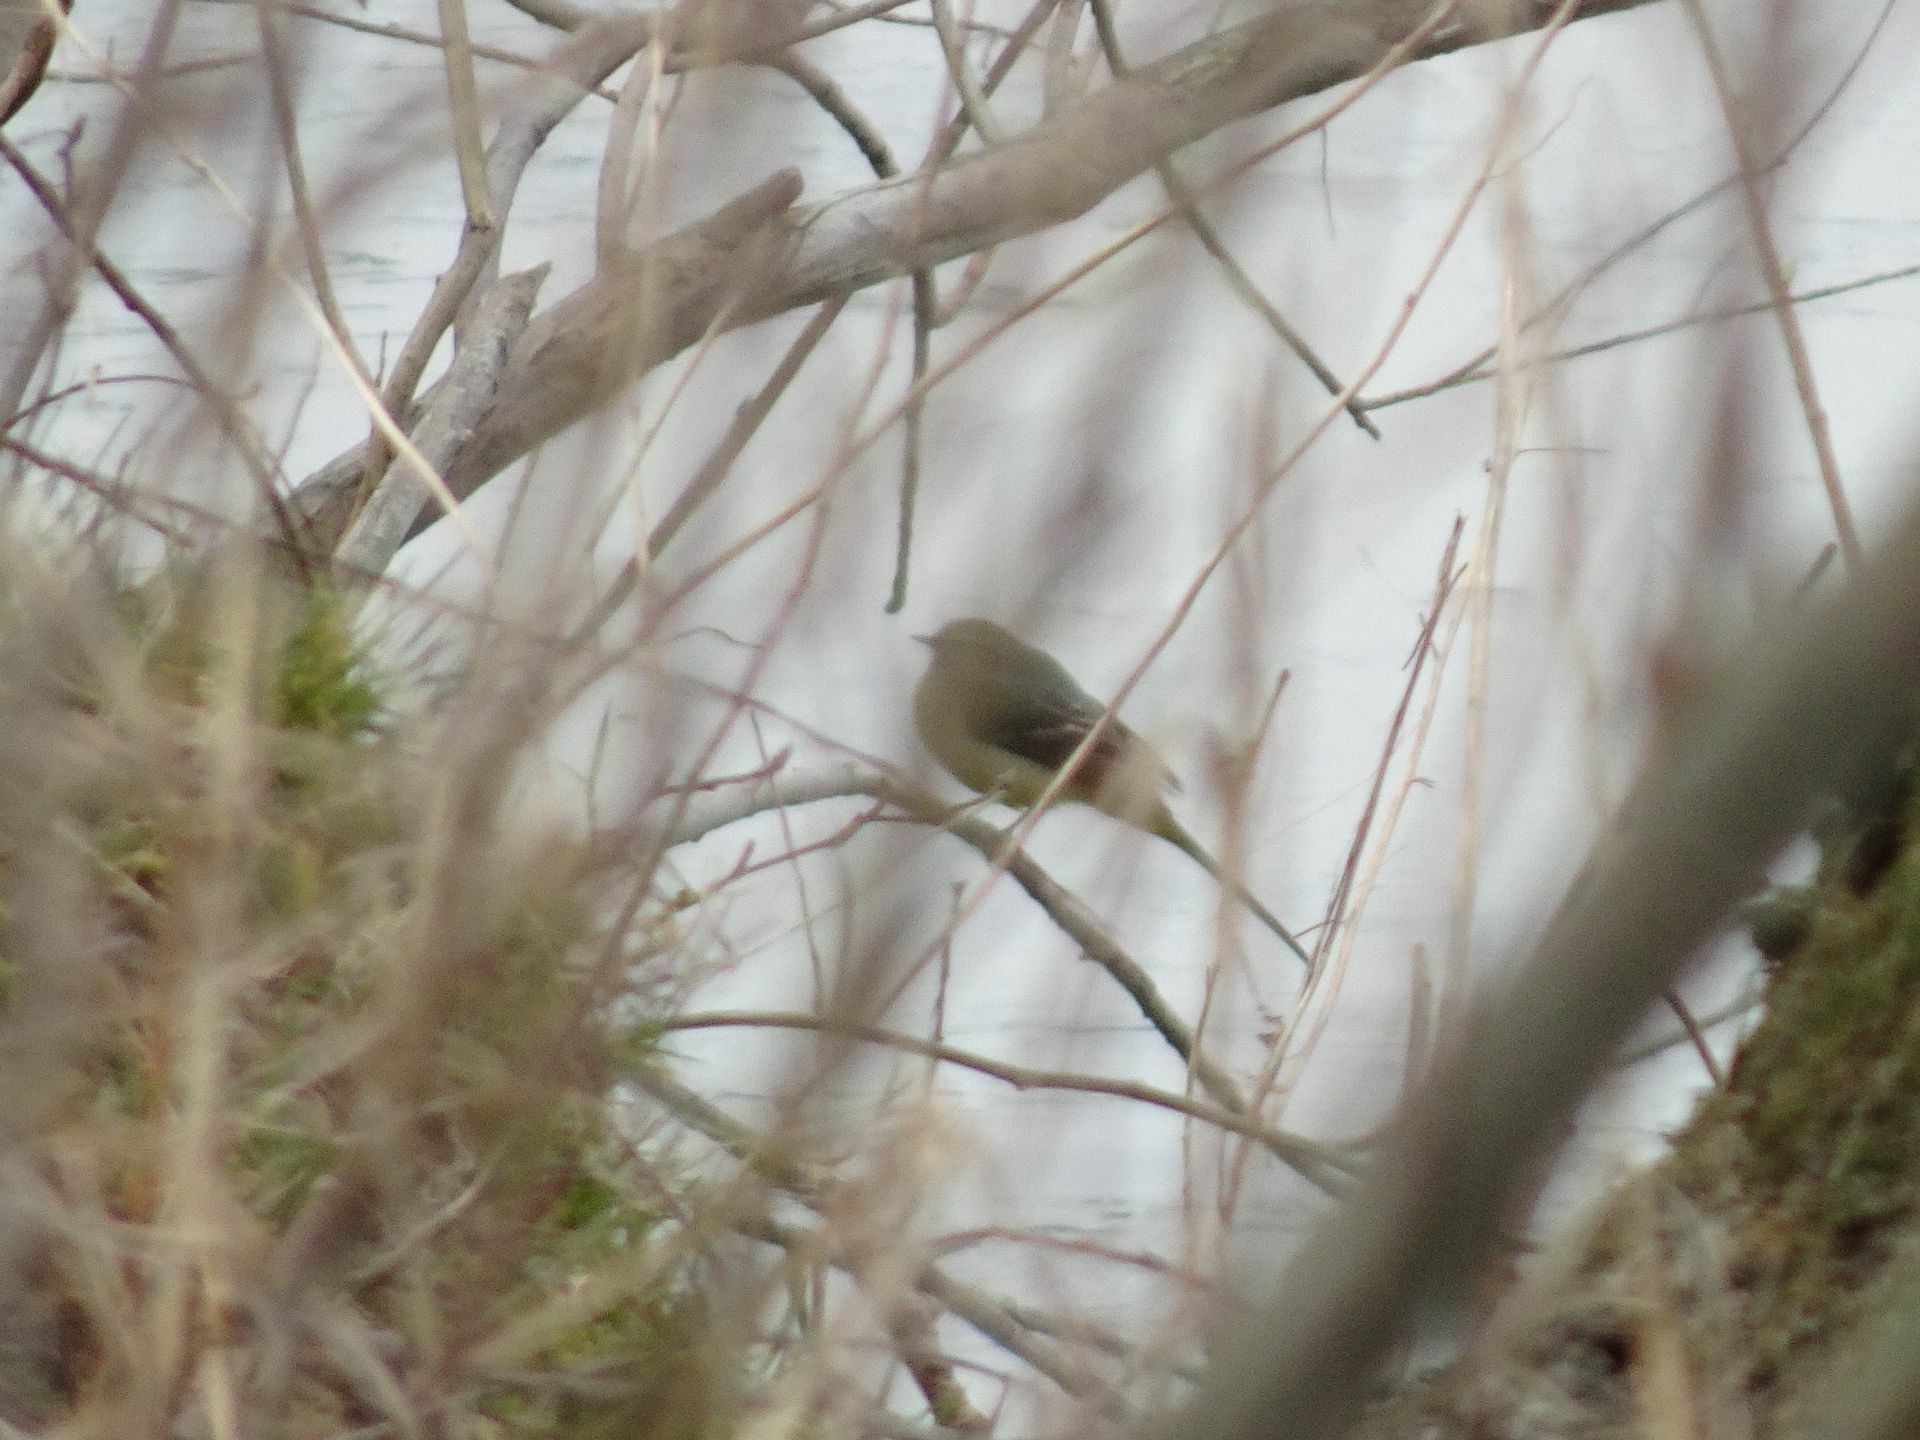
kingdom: Animalia
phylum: Chordata
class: Aves
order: Passeriformes
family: Motacillidae
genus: Motacilla
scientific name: Motacilla cinerea
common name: Grey wagtail
